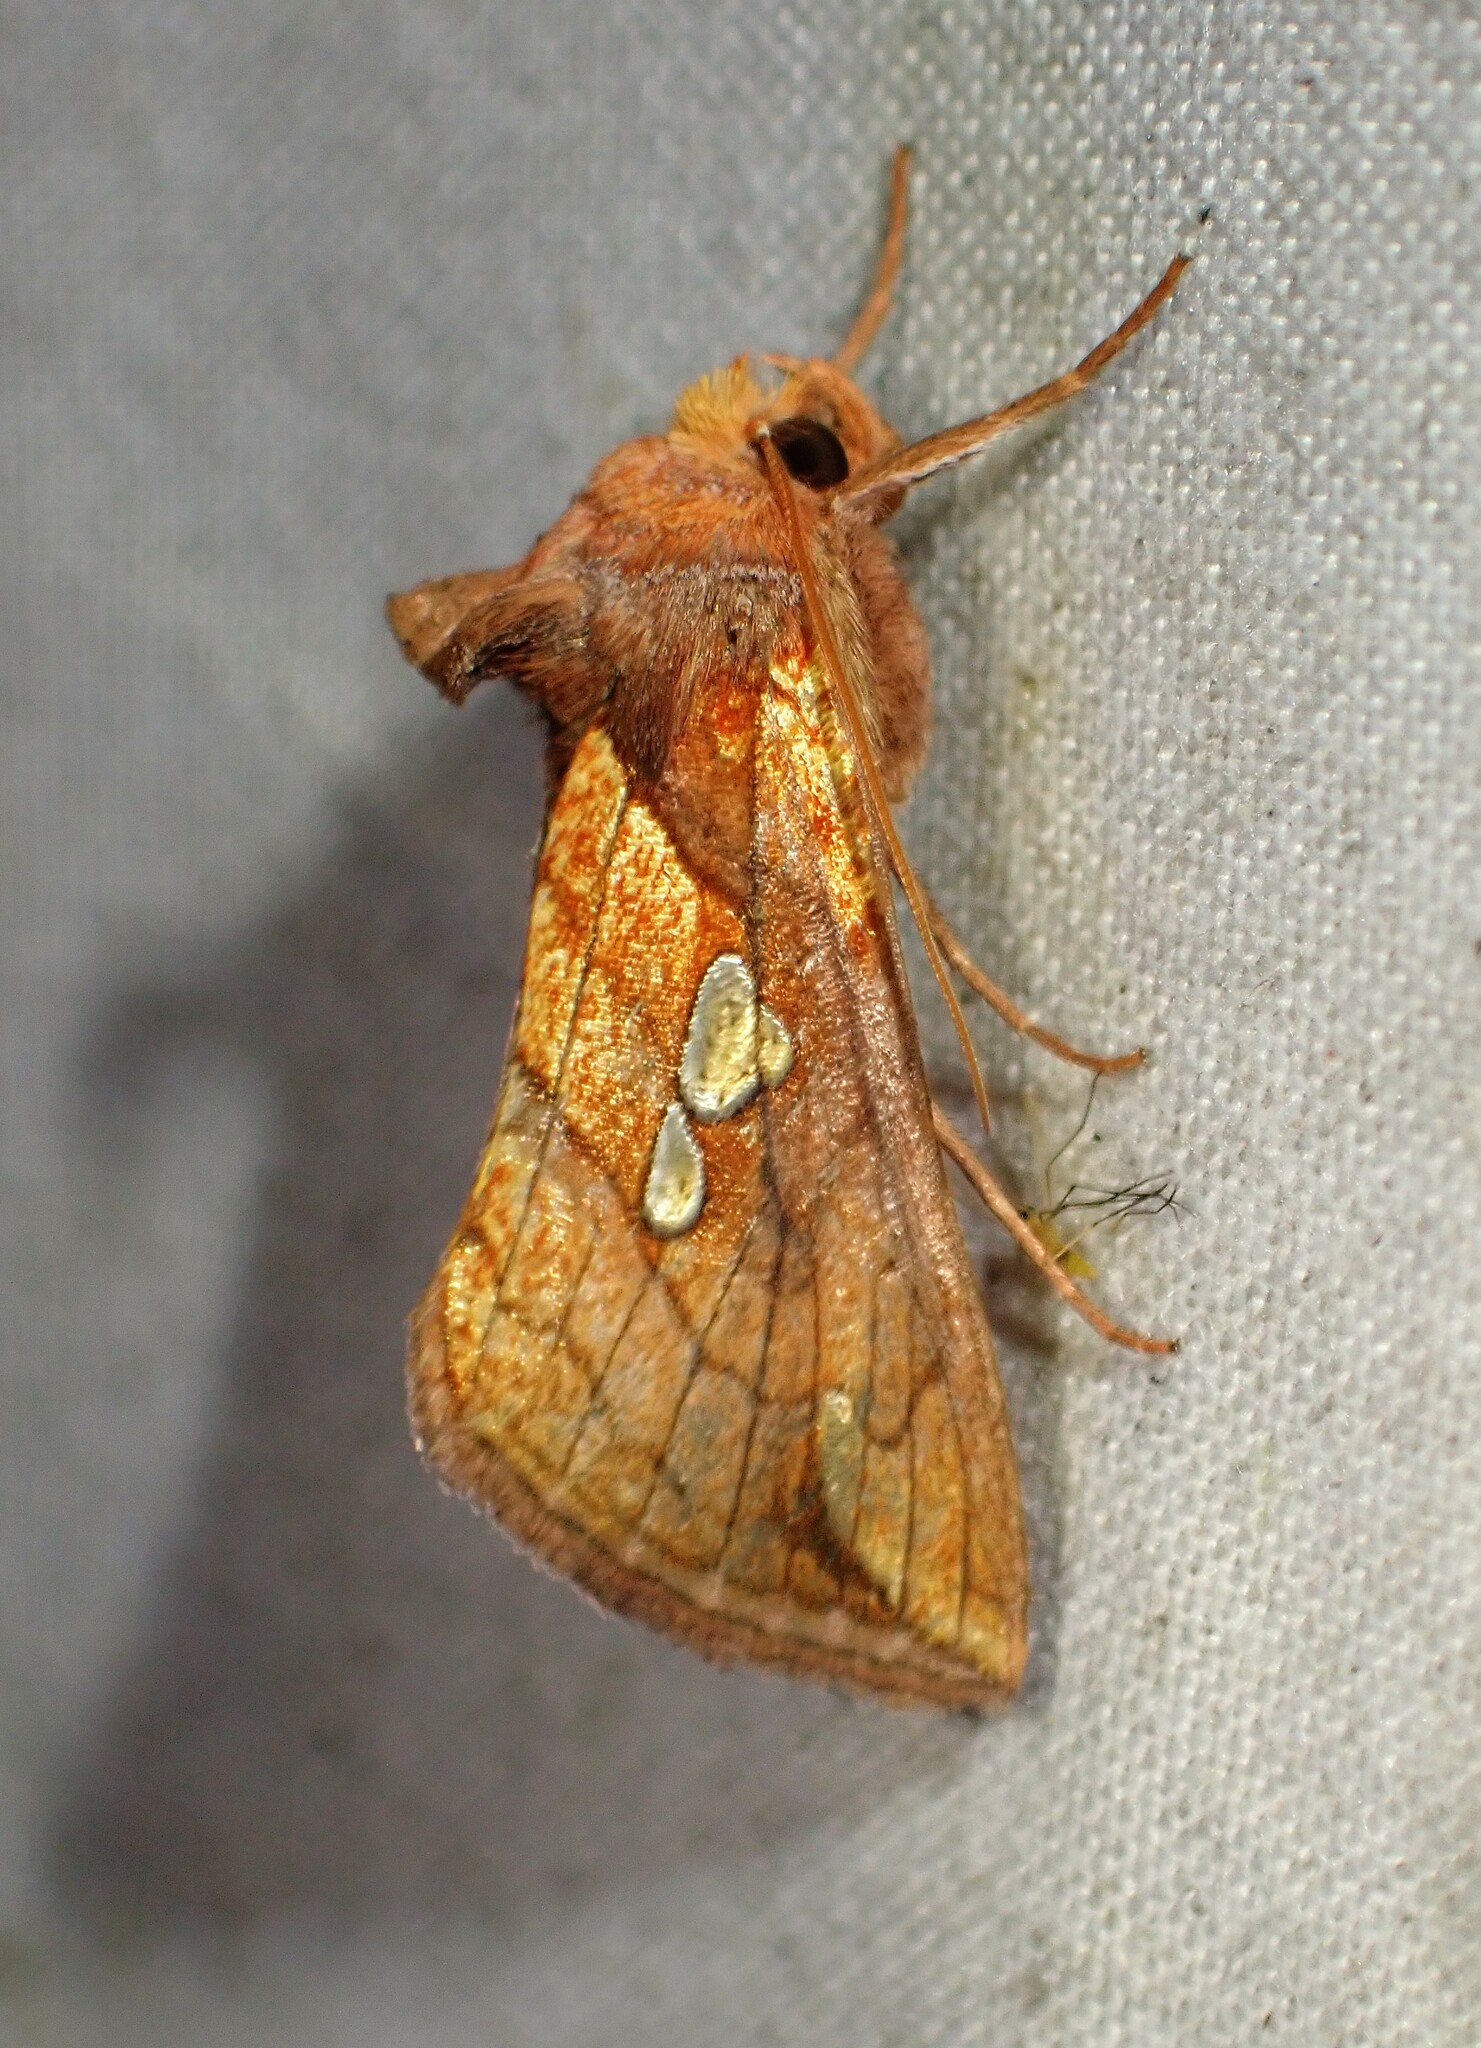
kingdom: Animalia
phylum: Arthropoda
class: Insecta
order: Lepidoptera
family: Noctuidae
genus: Plusia
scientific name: Plusia putnami
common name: Lempke's gold spot
